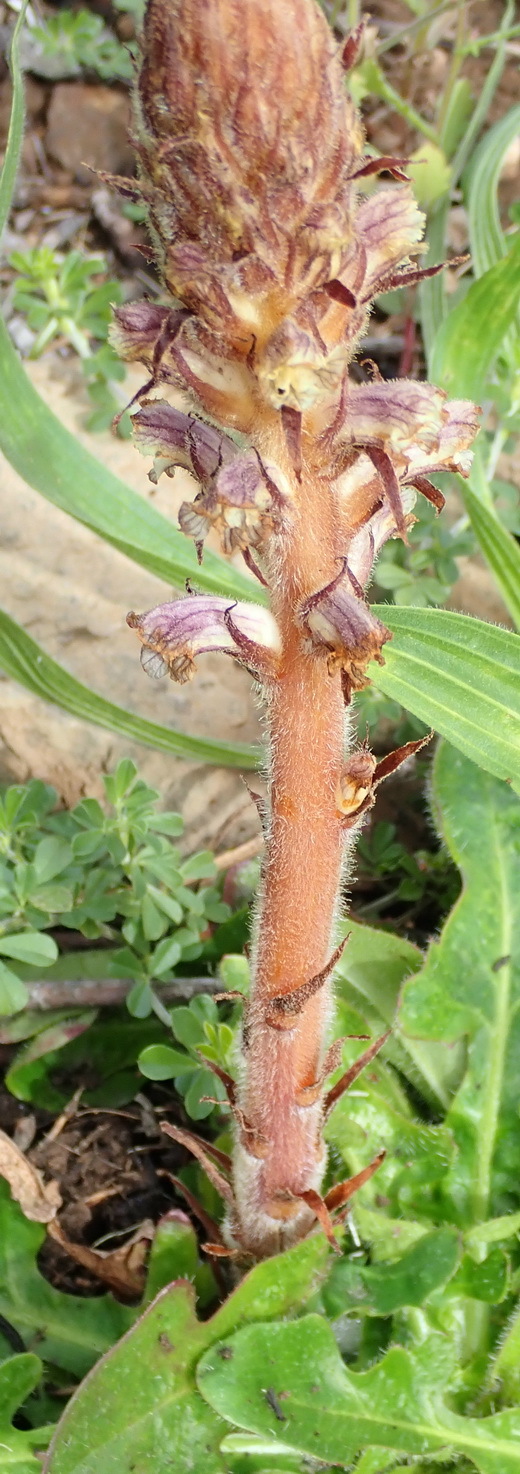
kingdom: Plantae
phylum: Tracheophyta
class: Magnoliopsida
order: Lamiales
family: Orobanchaceae
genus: Orobanche
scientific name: Orobanche minor
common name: Common broomrape
